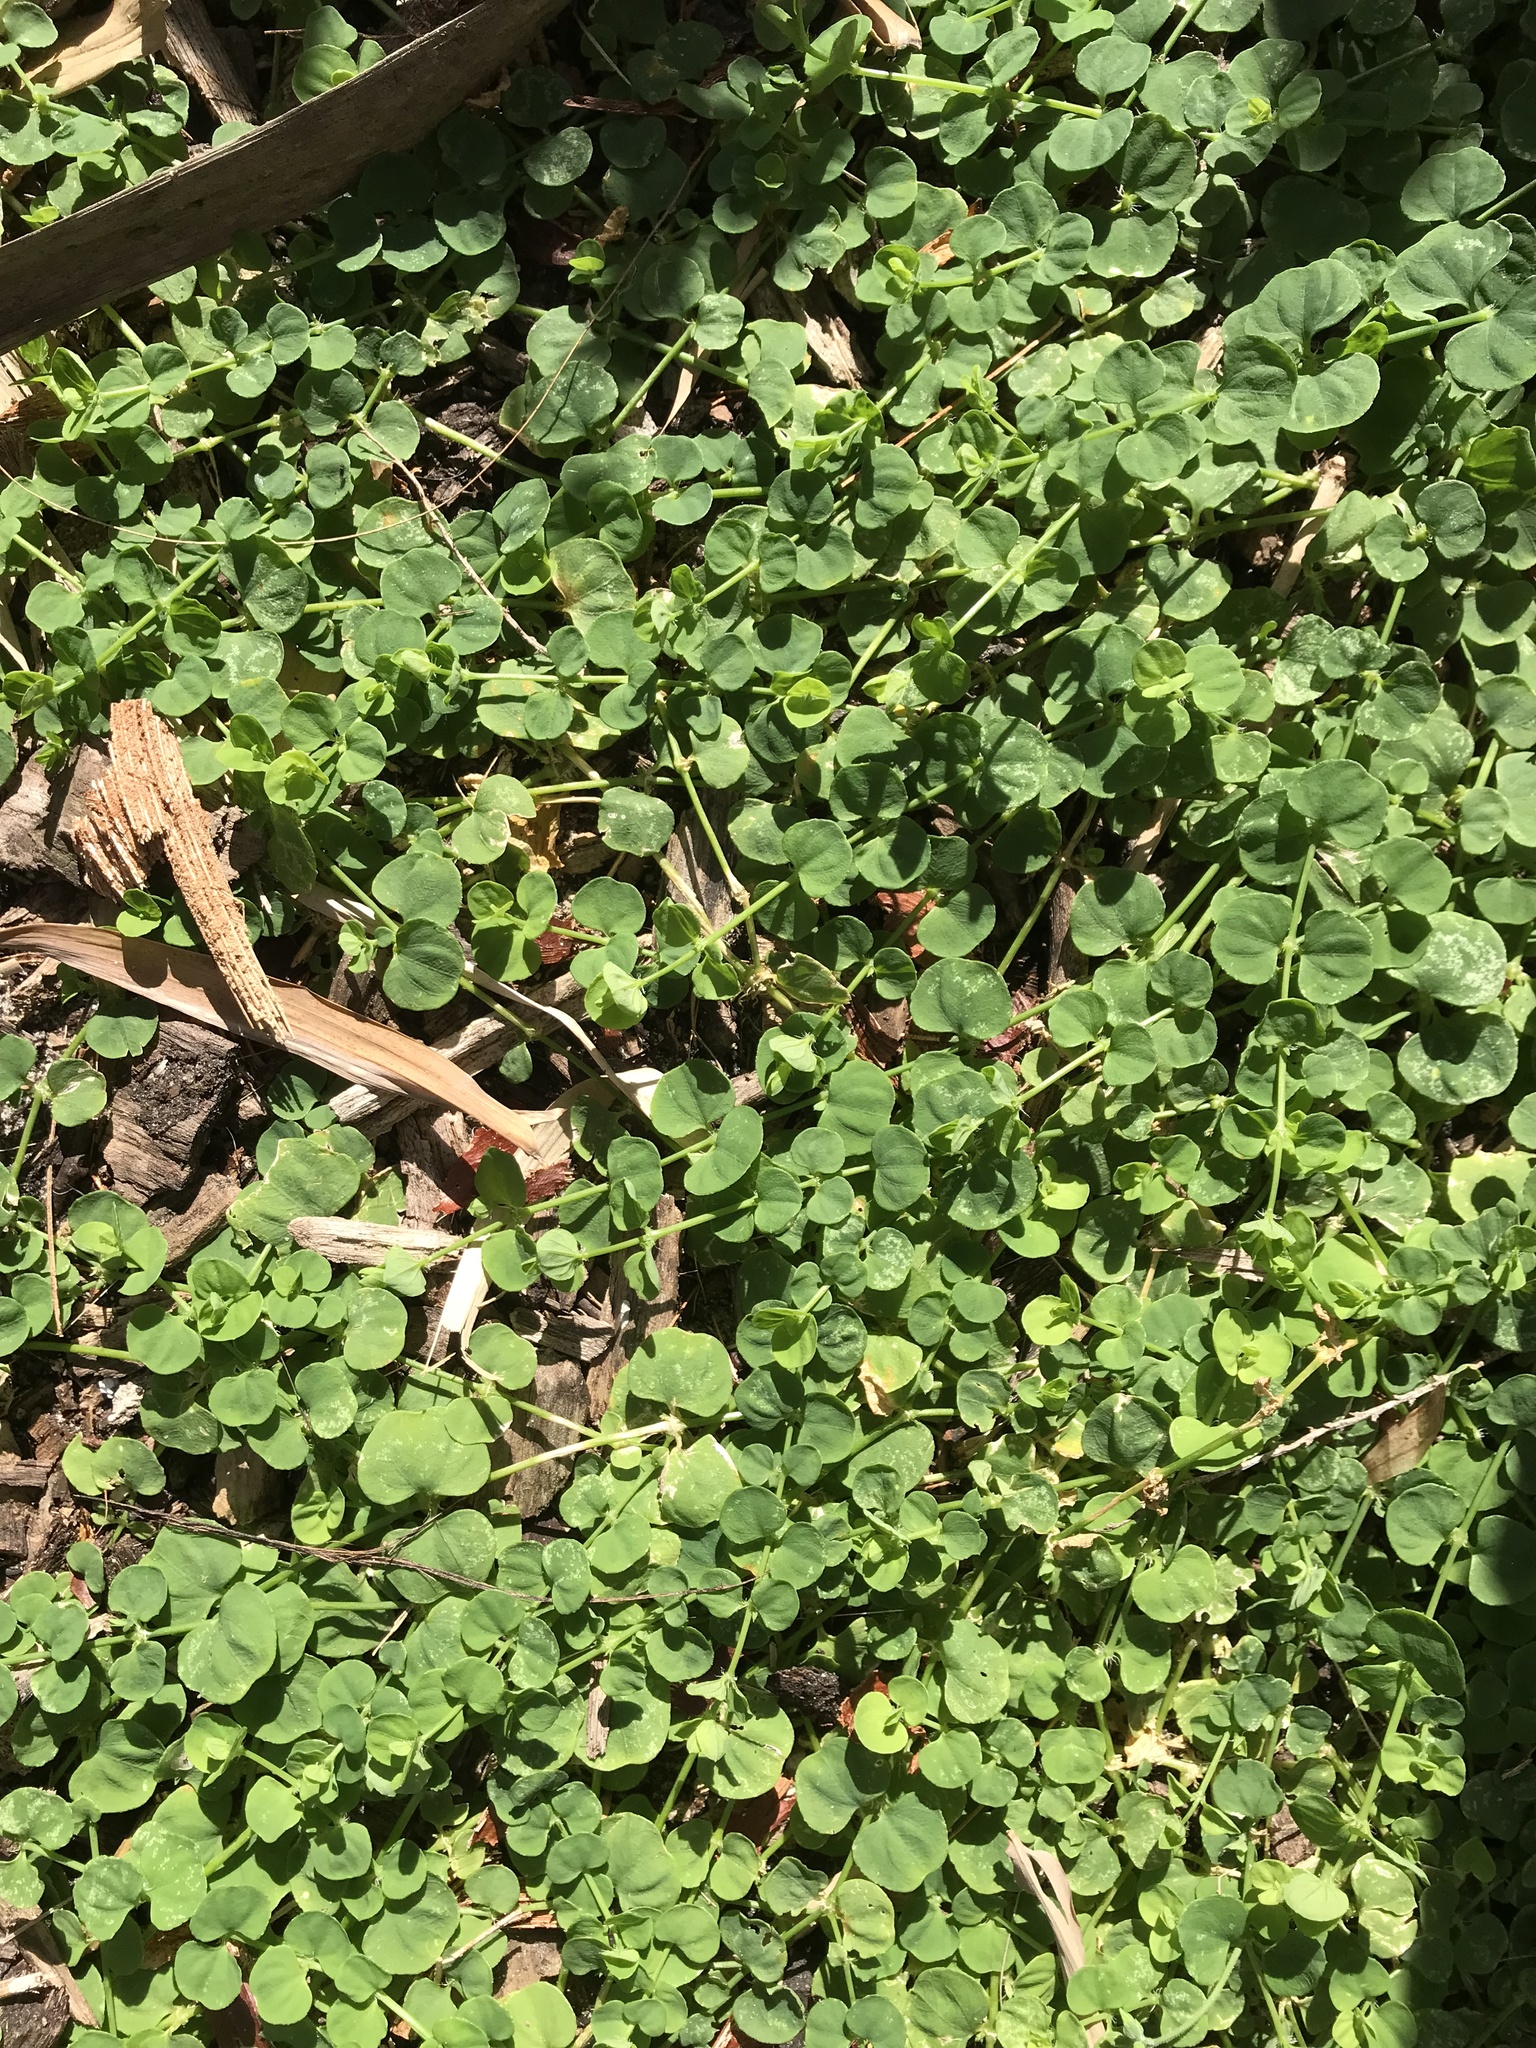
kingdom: Plantae
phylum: Tracheophyta
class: Magnoliopsida
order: Caryophyllales
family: Caryophyllaceae
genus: Drymaria
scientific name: Drymaria cordata
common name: Whitesnow
